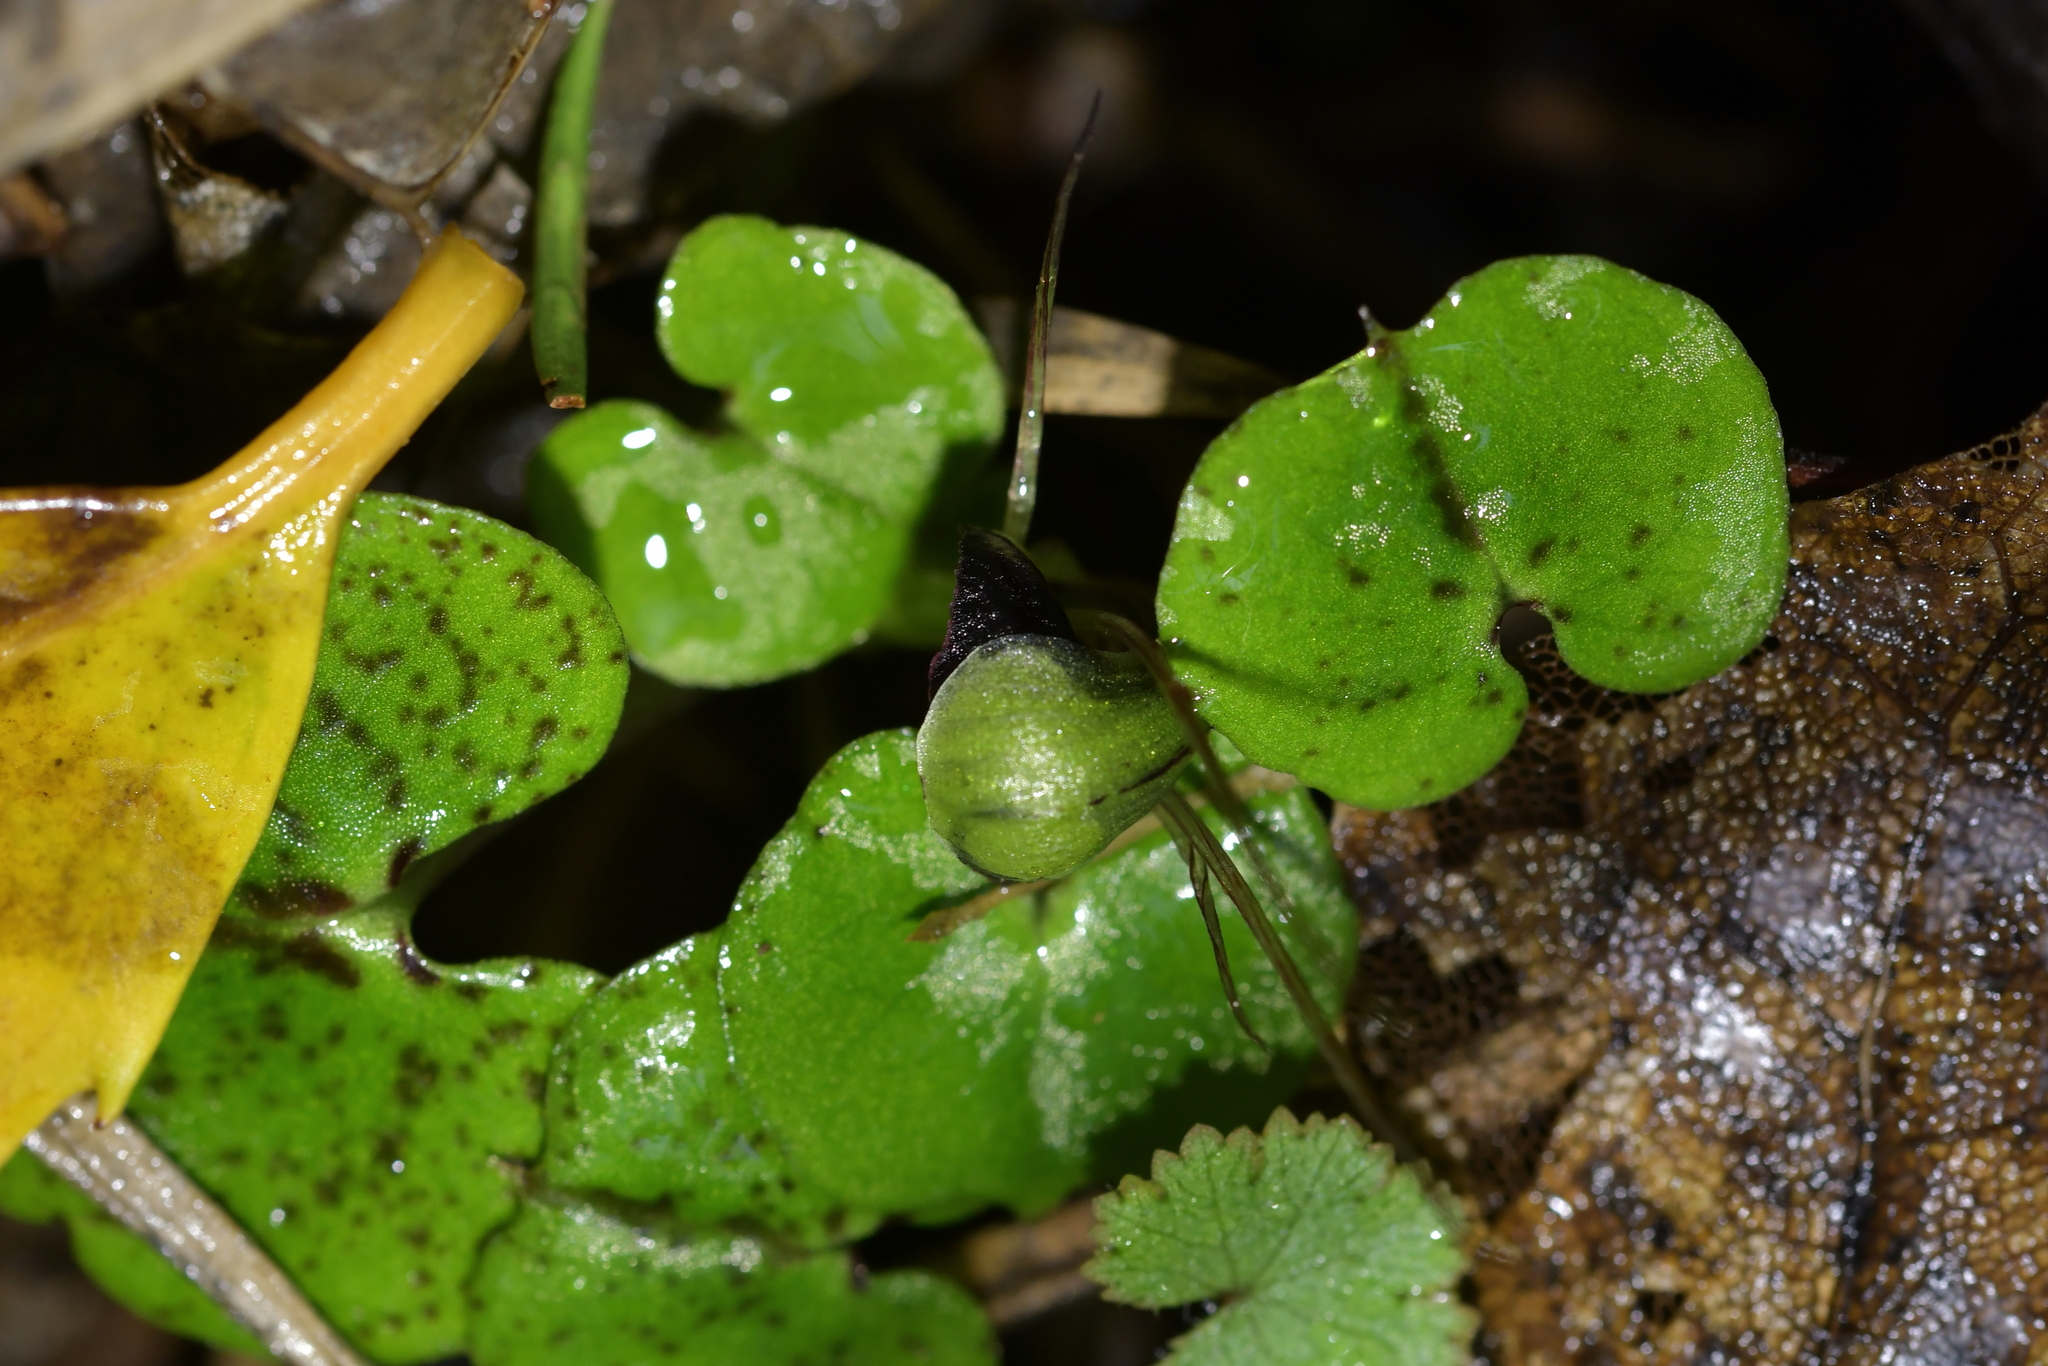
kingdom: Plantae
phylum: Tracheophyta
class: Liliopsida
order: Asparagales
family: Orchidaceae
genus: Corybas
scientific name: Corybas vitreus
